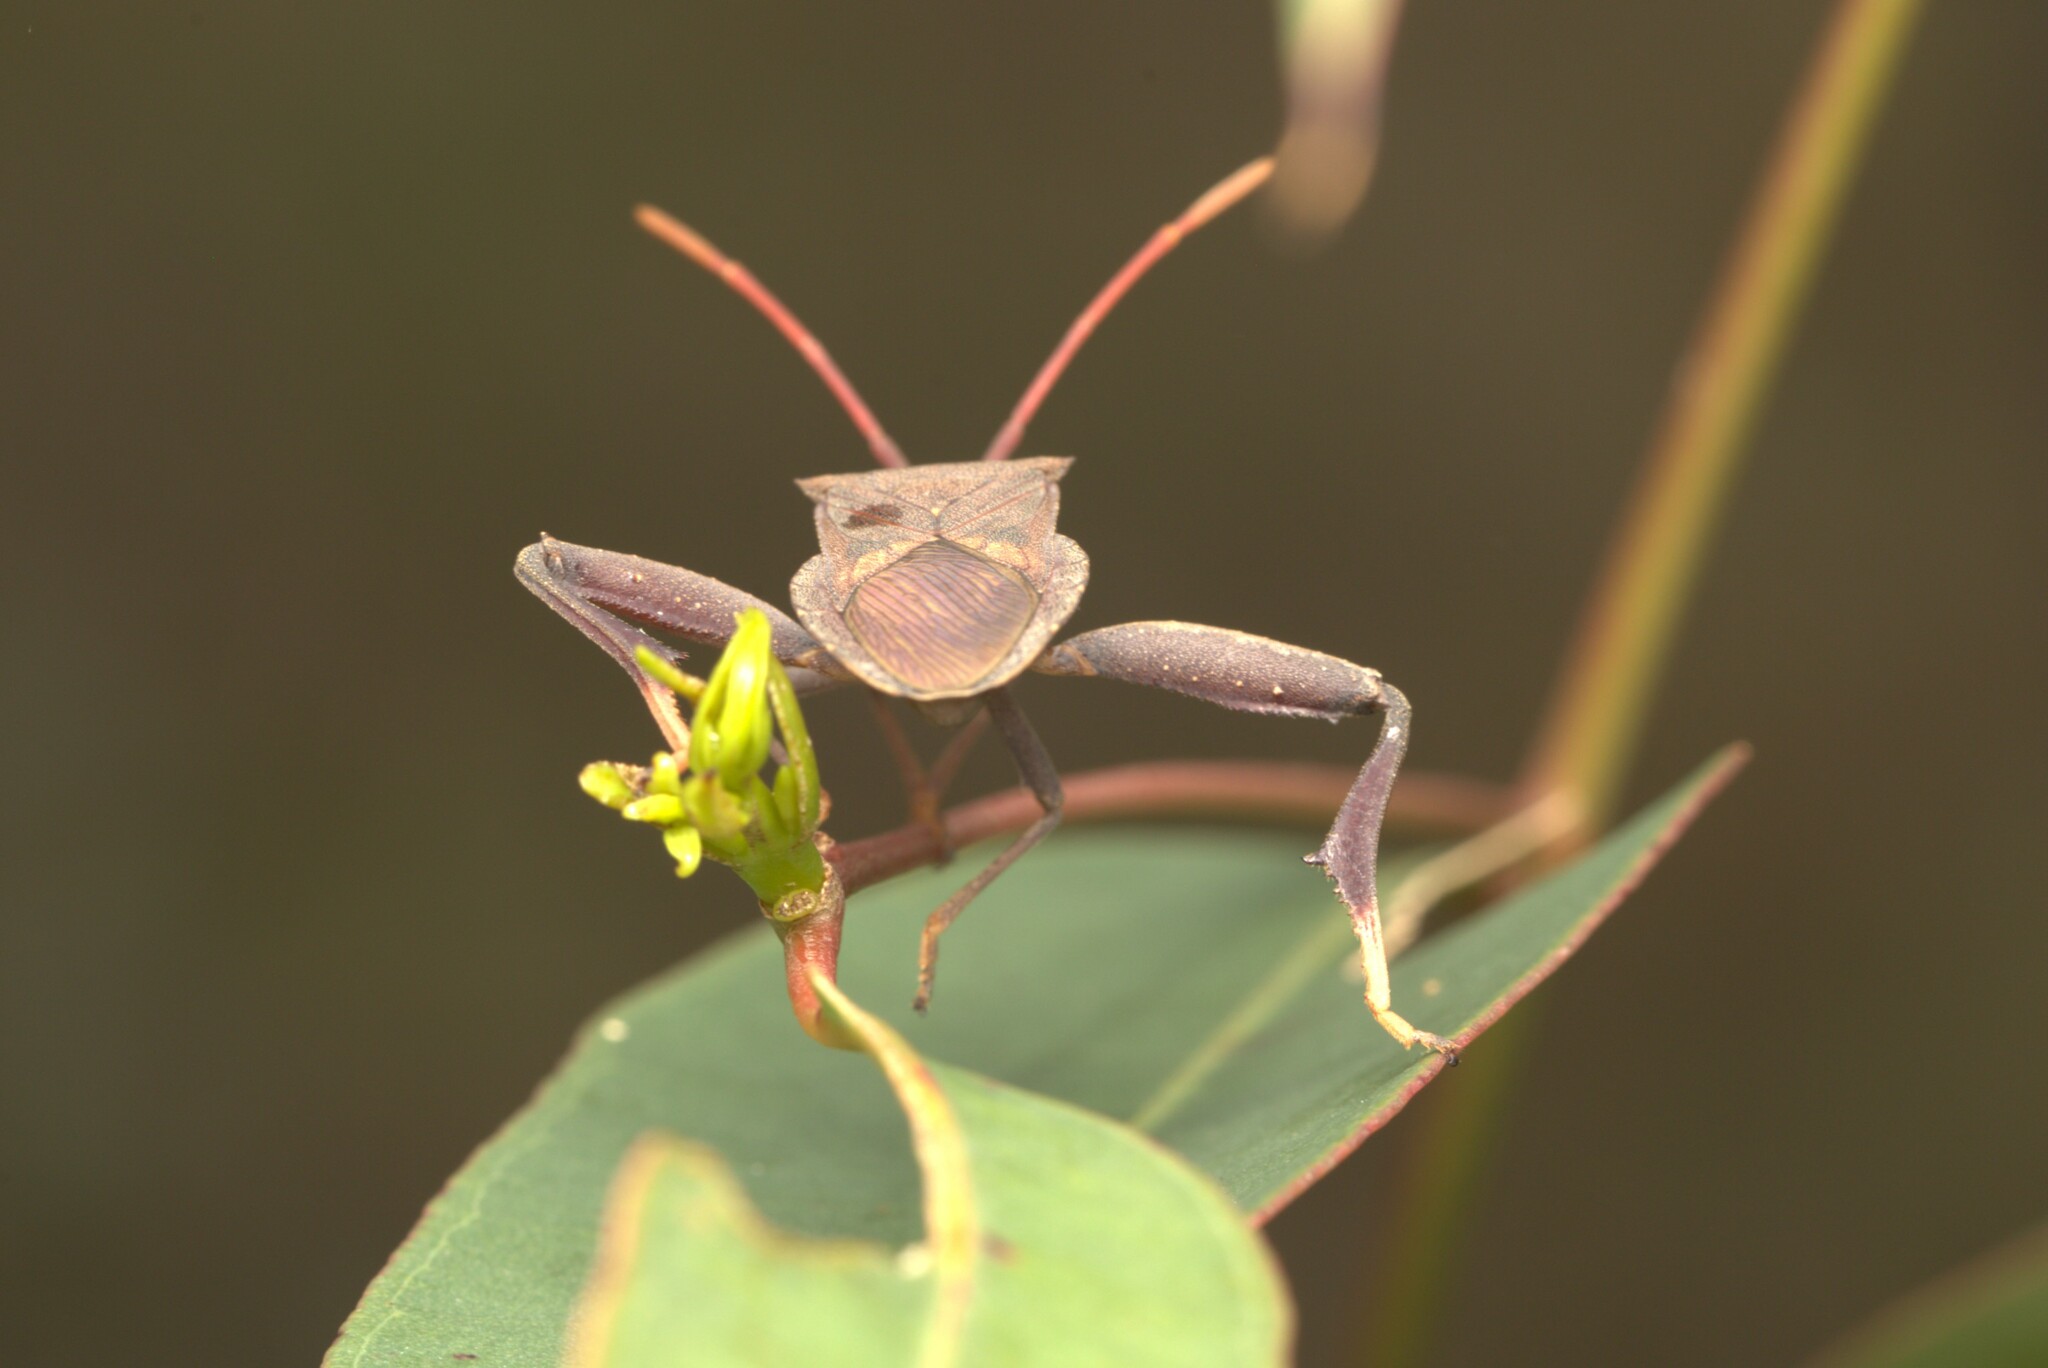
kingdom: Animalia
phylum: Arthropoda
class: Insecta
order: Hemiptera
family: Coreidae
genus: Amorbus
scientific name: Amorbus robustus
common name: Common gum-tree bug
